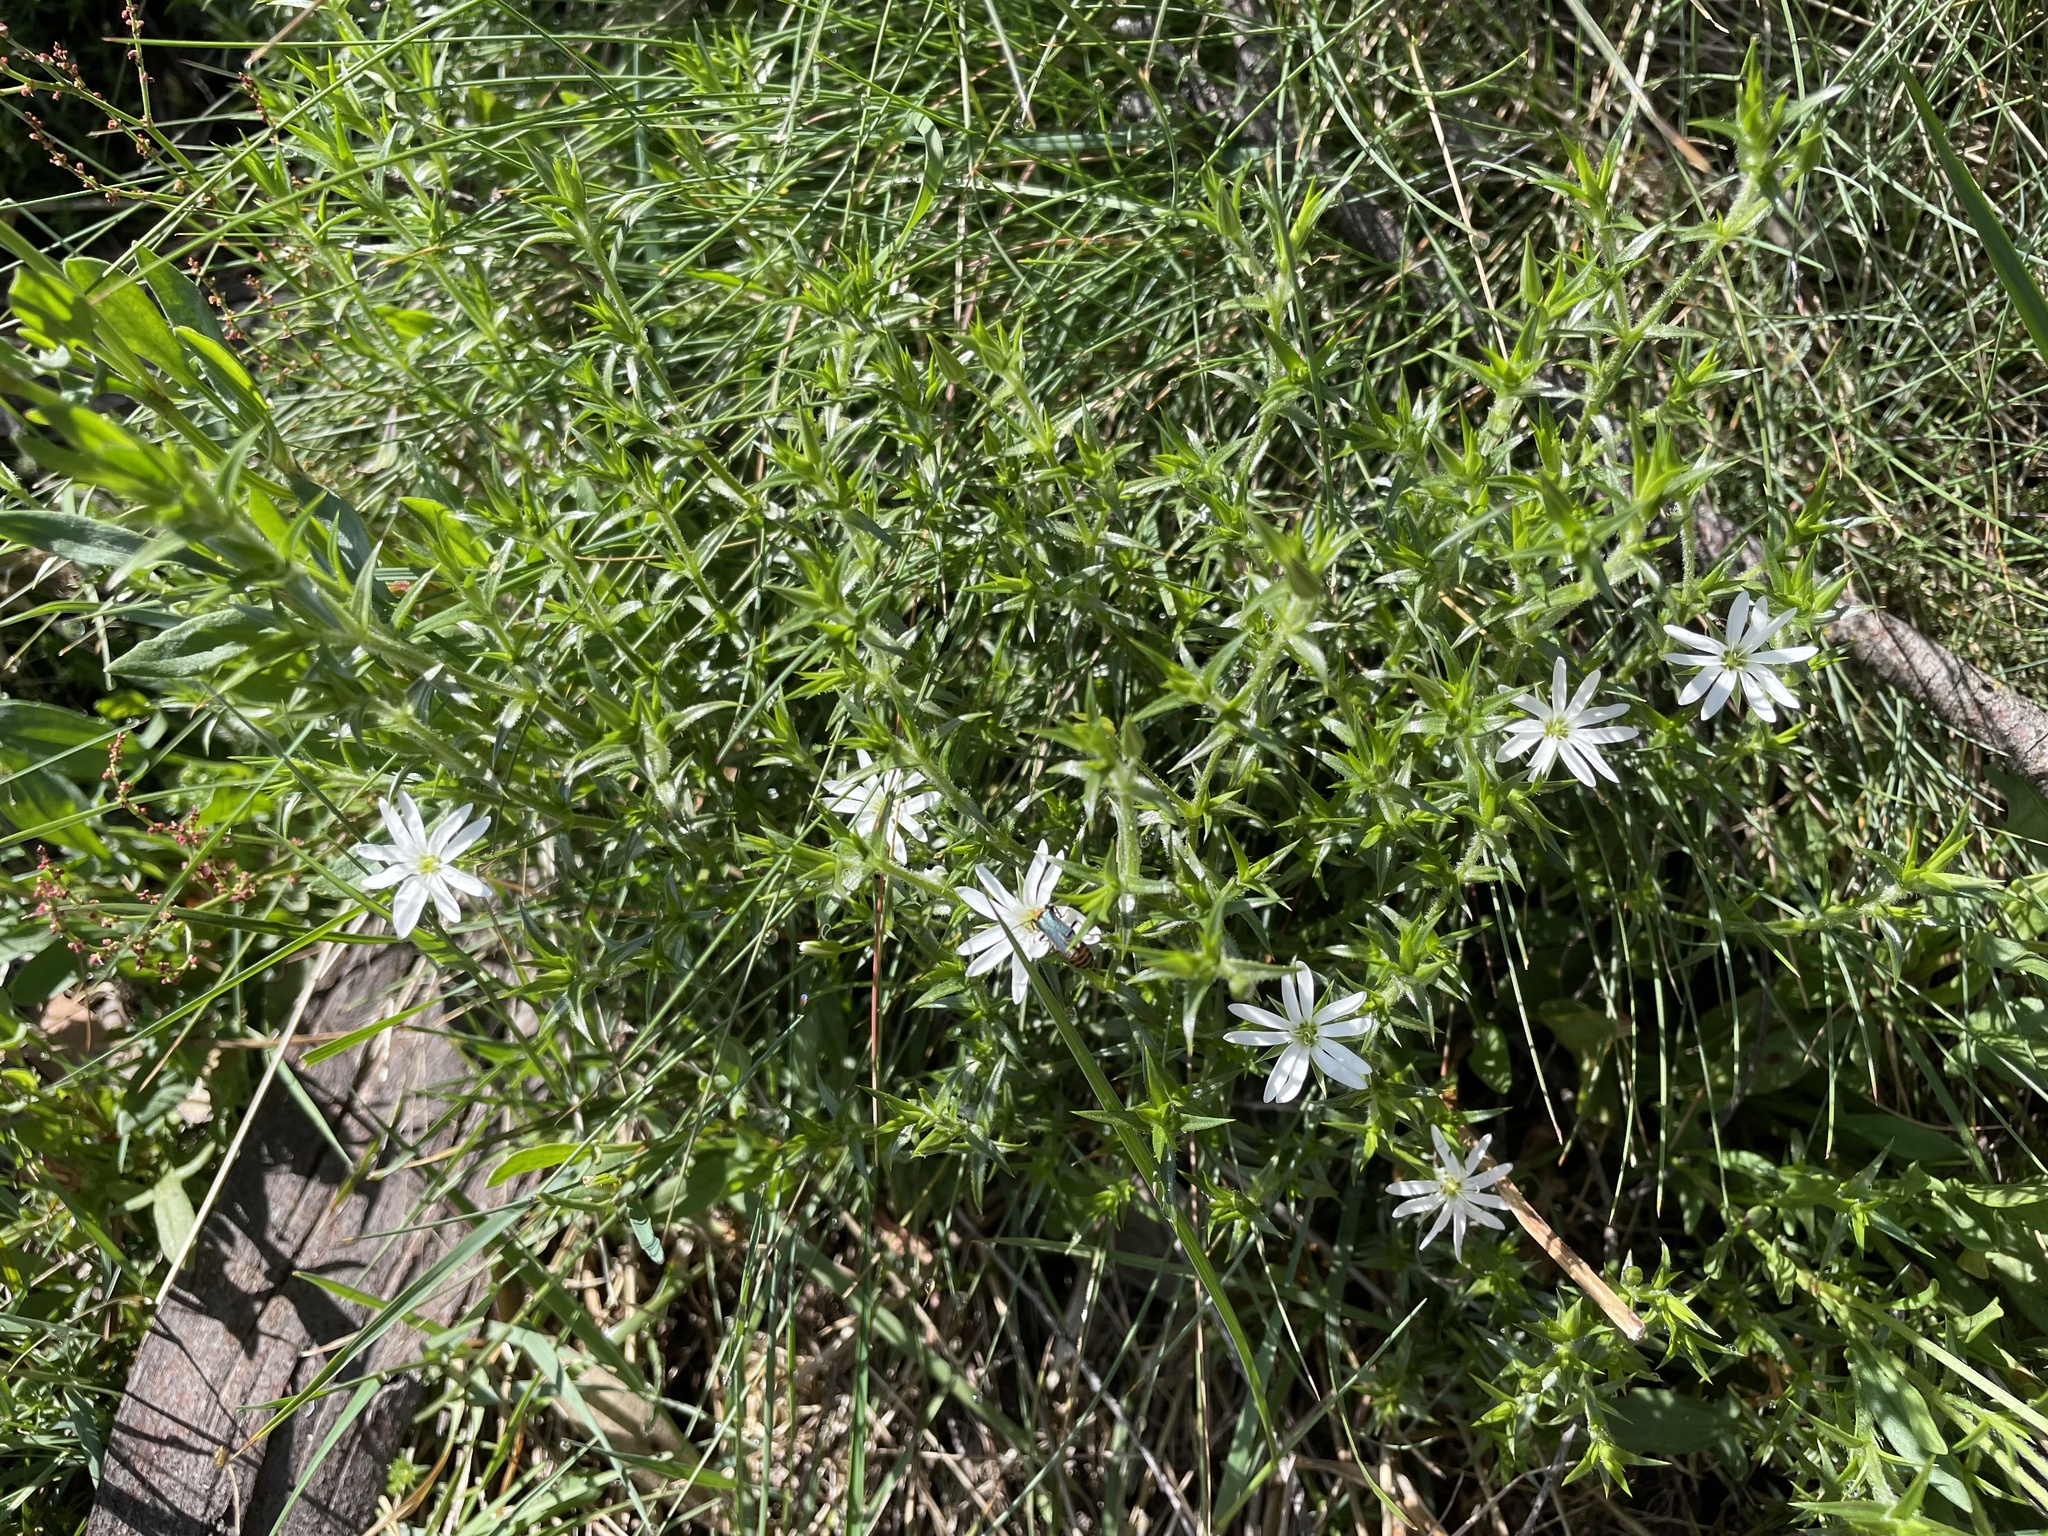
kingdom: Plantae
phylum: Tracheophyta
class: Magnoliopsida
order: Caryophyllales
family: Caryophyllaceae
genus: Stellaria
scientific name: Stellaria pungens
